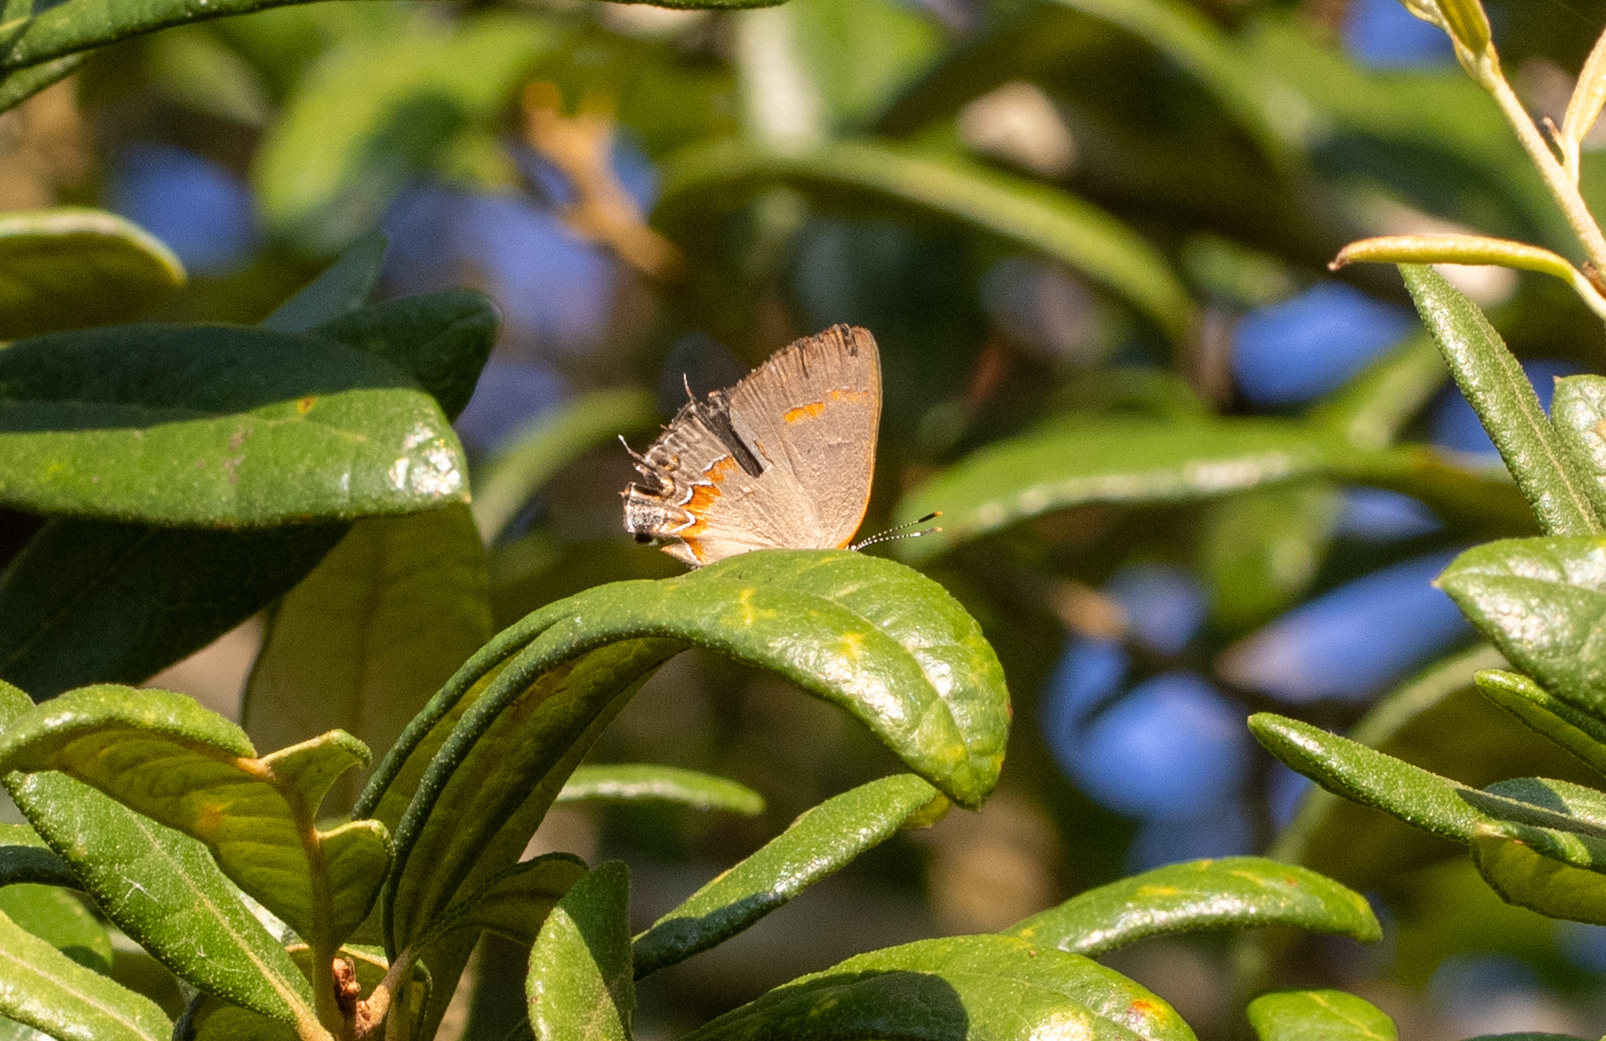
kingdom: Animalia
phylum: Arthropoda
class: Insecta
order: Lepidoptera
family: Lycaenidae
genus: Calycopis
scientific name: Calycopis cecrops
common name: Red-banded hairstreak
